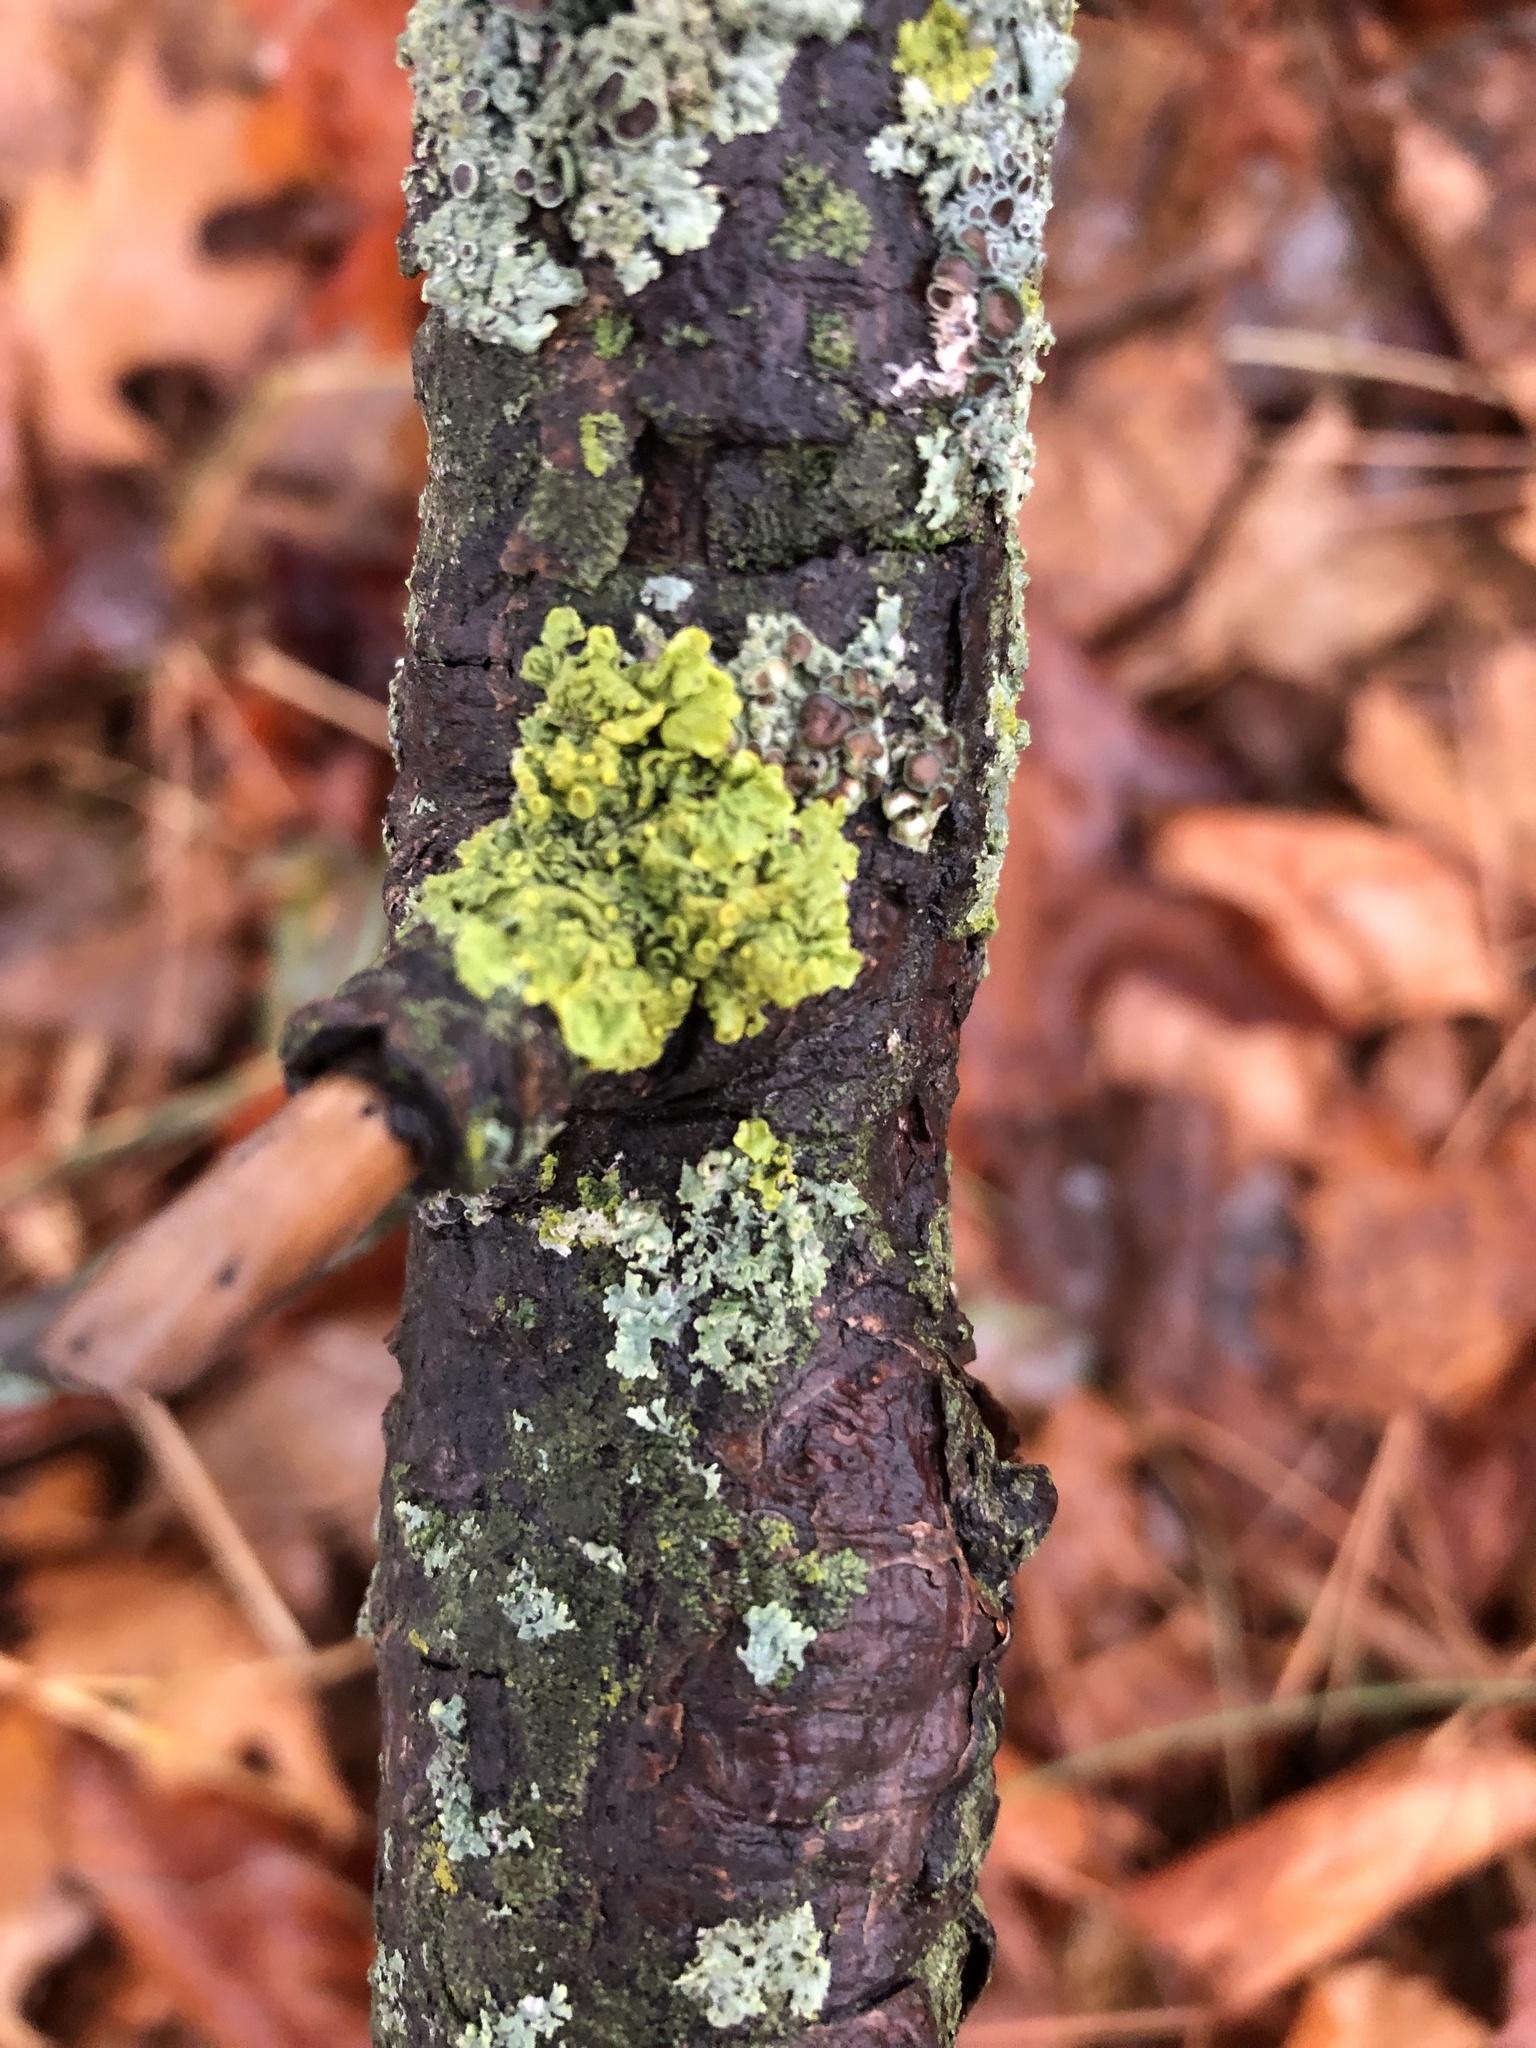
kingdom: Fungi
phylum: Ascomycota
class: Lecanoromycetes
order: Teloschistales
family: Teloschistaceae
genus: Xanthoria
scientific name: Xanthoria parietina
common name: Common orange lichen
